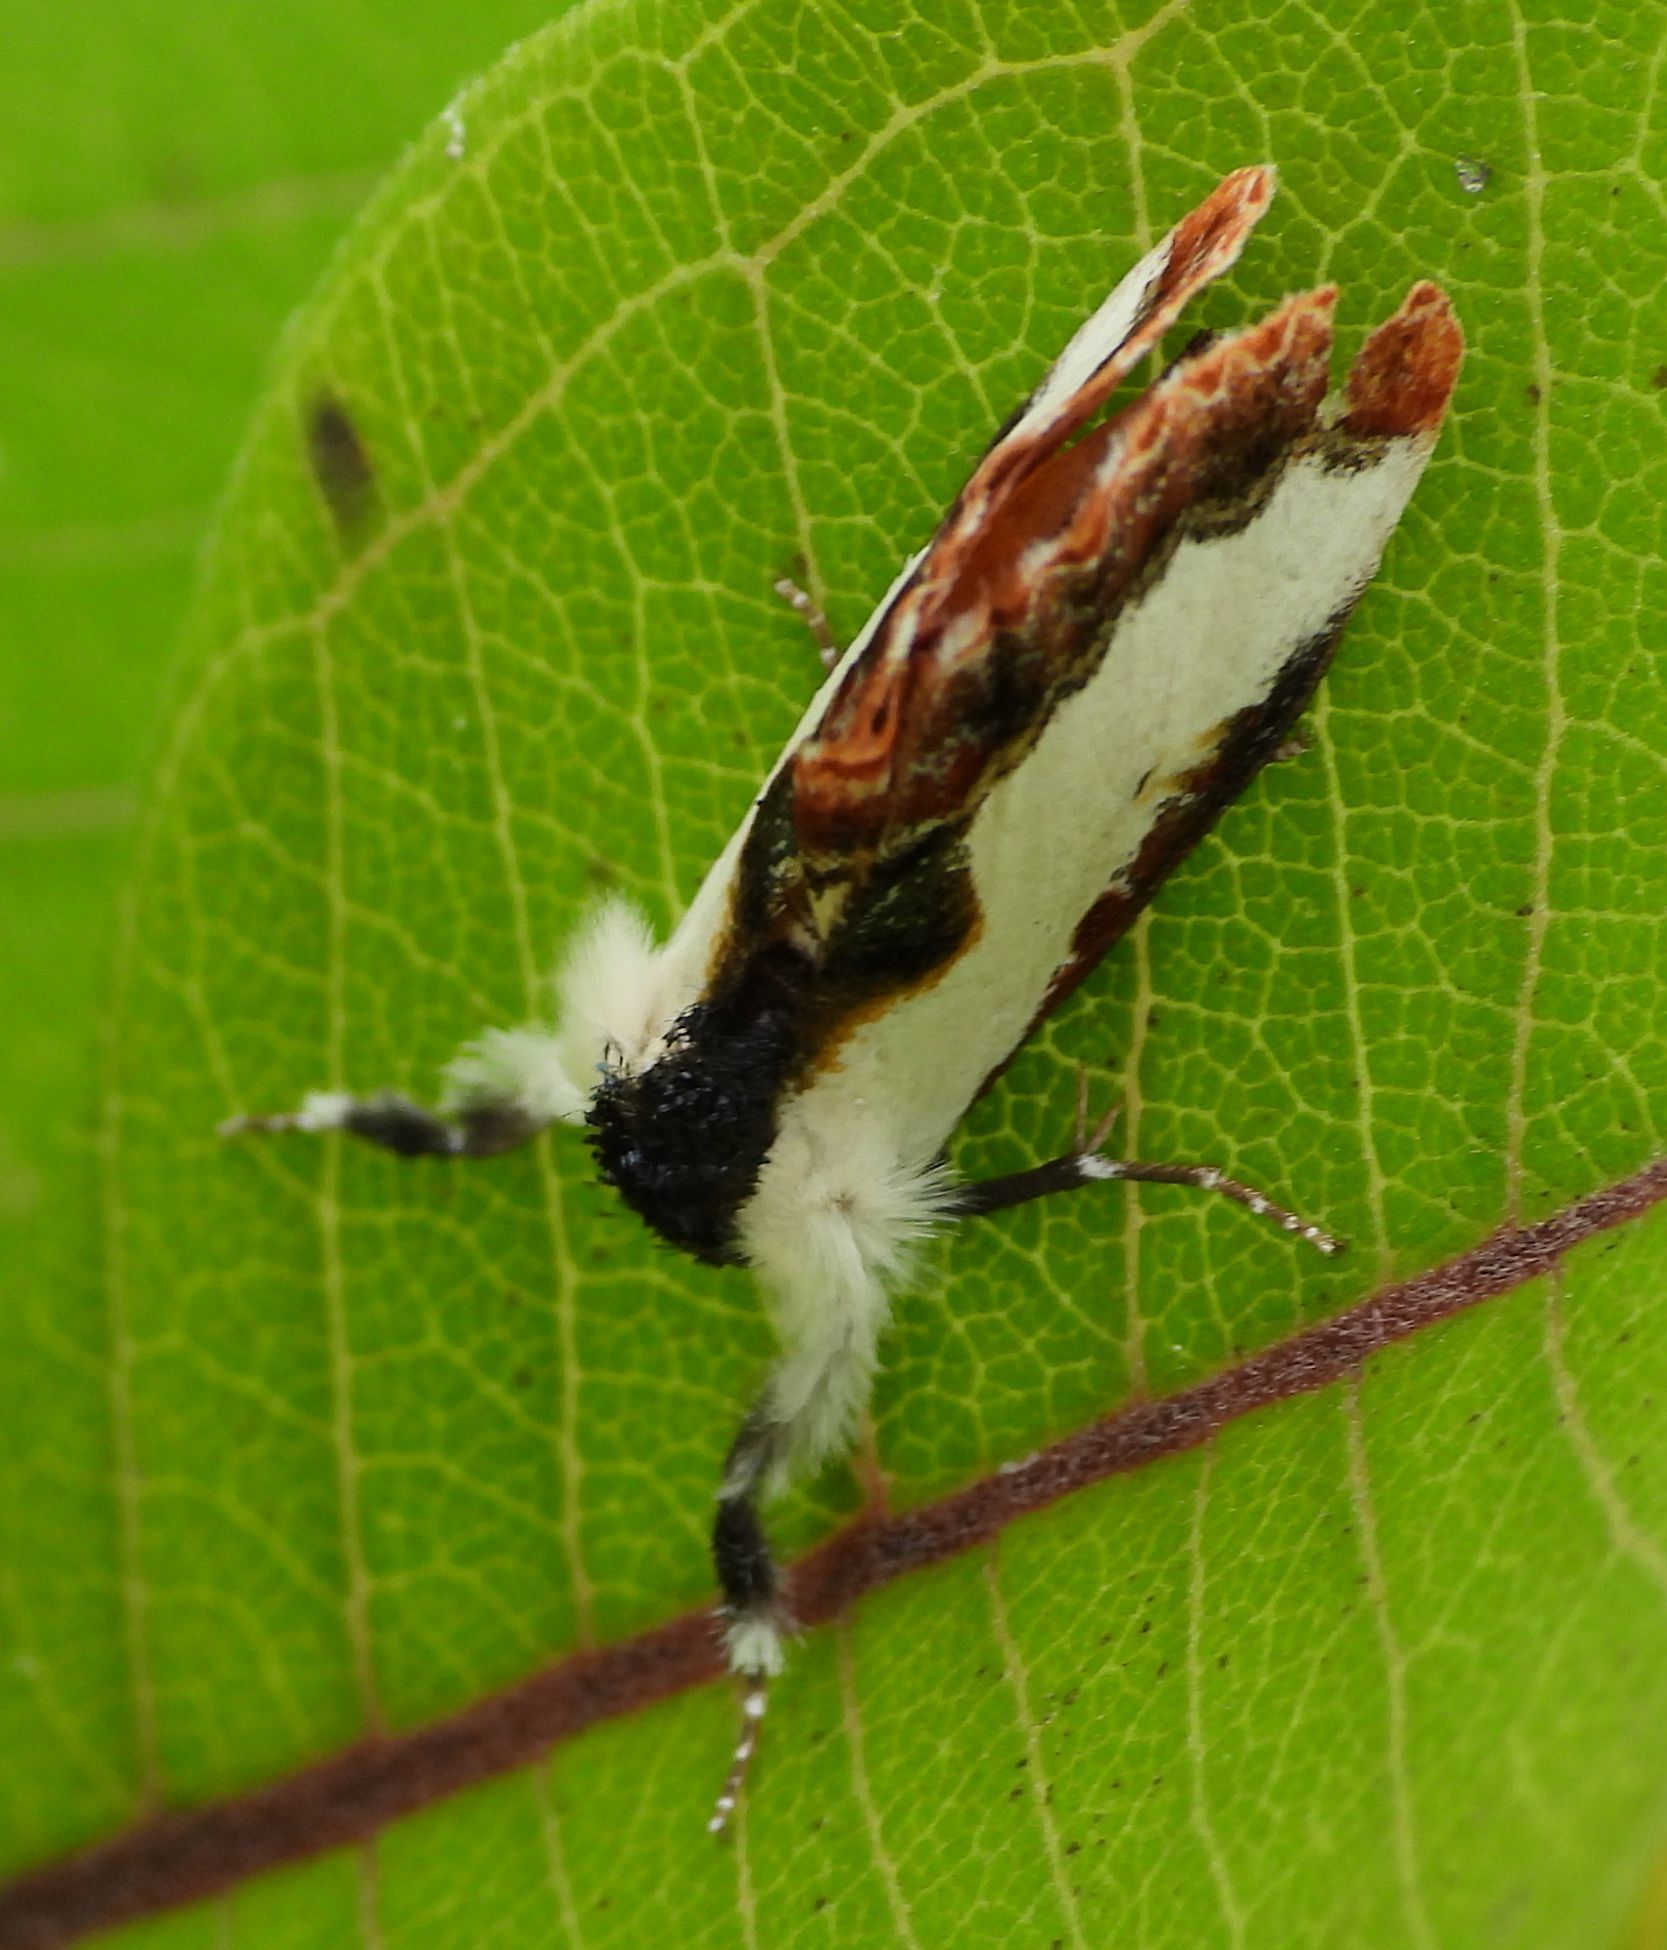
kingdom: Animalia
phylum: Arthropoda
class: Insecta
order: Lepidoptera
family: Noctuidae
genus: Eudryas
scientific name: Eudryas unio
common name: Pearly wood-nymph
